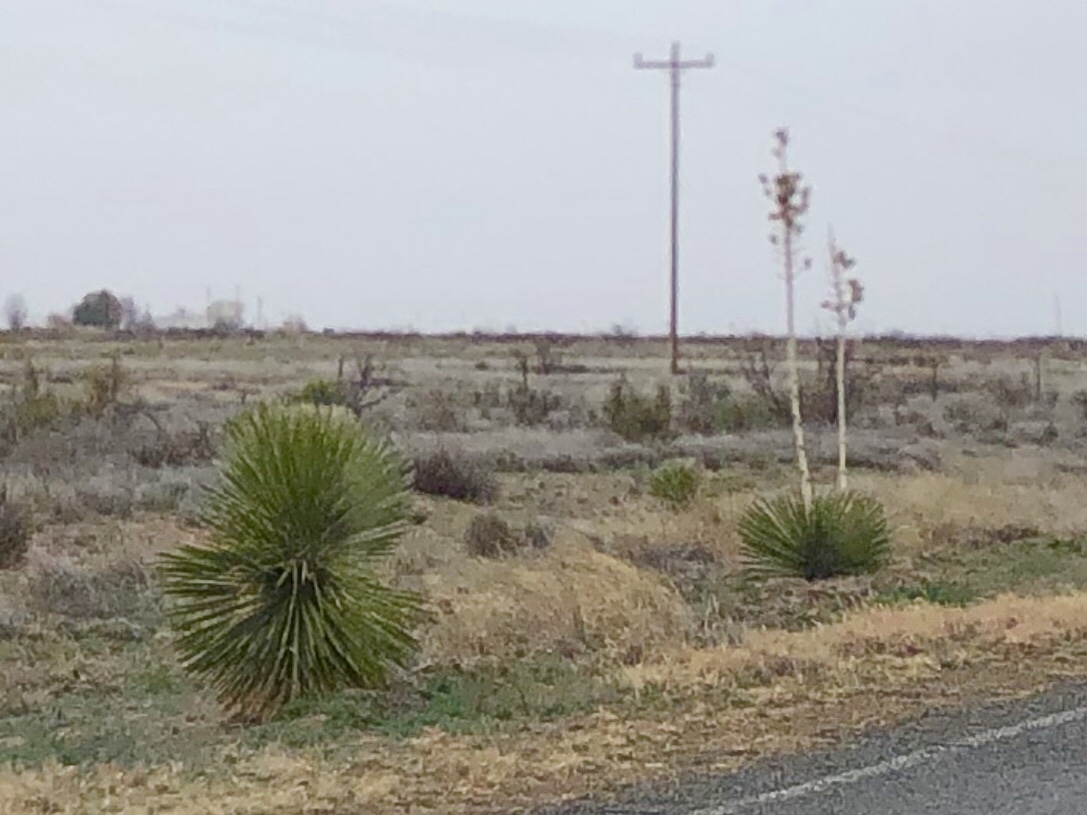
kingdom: Plantae
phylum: Tracheophyta
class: Liliopsida
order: Asparagales
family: Asparagaceae
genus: Yucca
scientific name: Yucca elata
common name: Palmella
